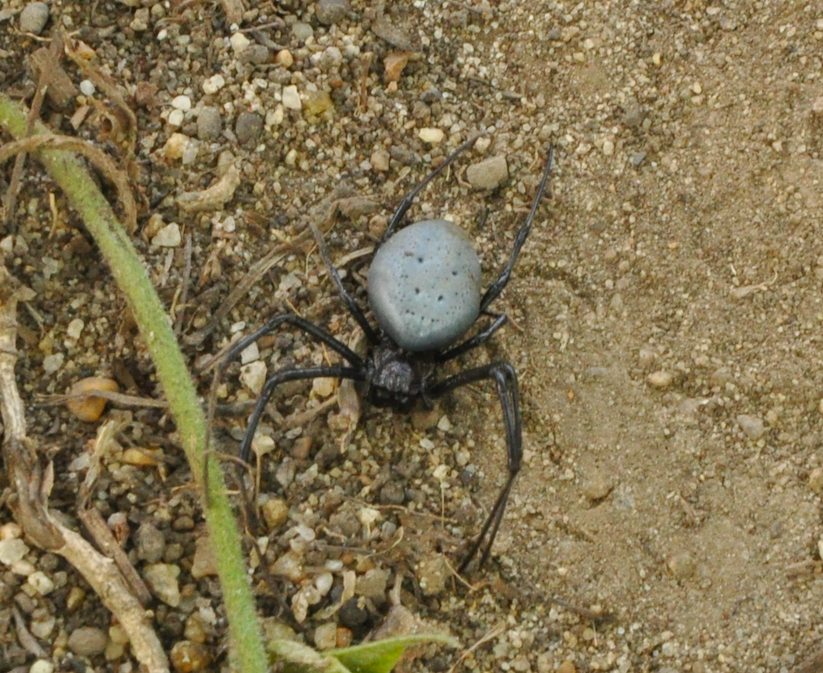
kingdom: Animalia
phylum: Arthropoda
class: Arachnida
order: Araneae
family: Araneidae
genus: Nephilingis
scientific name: Nephilingis livida
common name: Madagascar hermit spider
